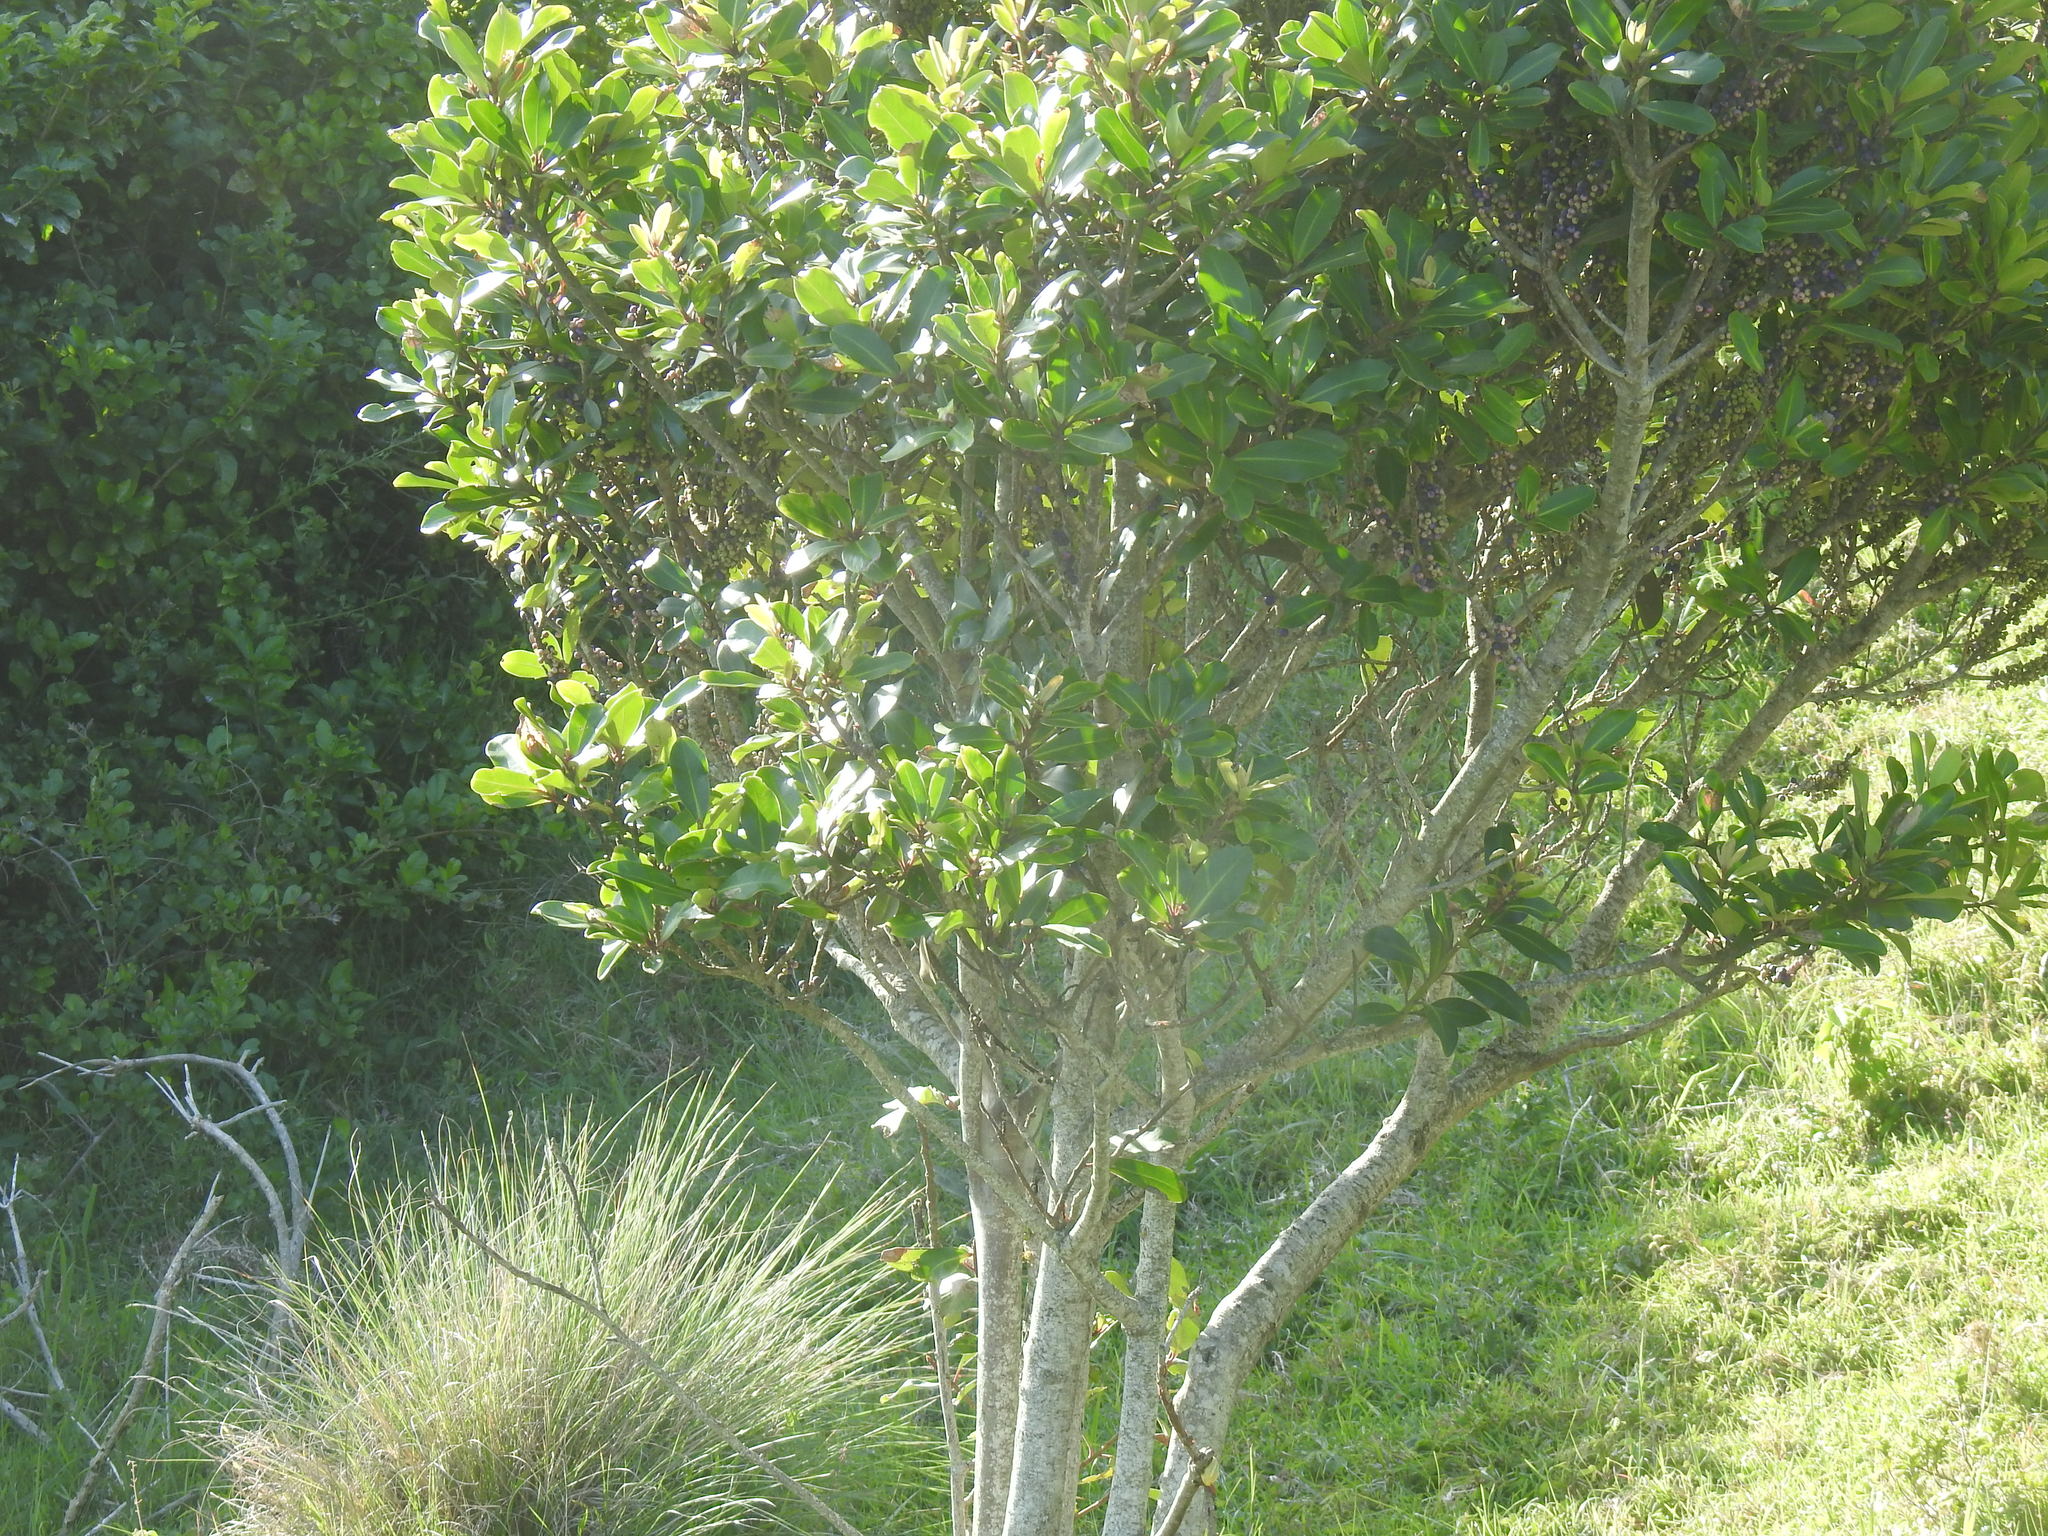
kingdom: Plantae
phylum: Tracheophyta
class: Magnoliopsida
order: Ericales
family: Primulaceae
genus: Myrsine
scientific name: Myrsine melanophloeos
